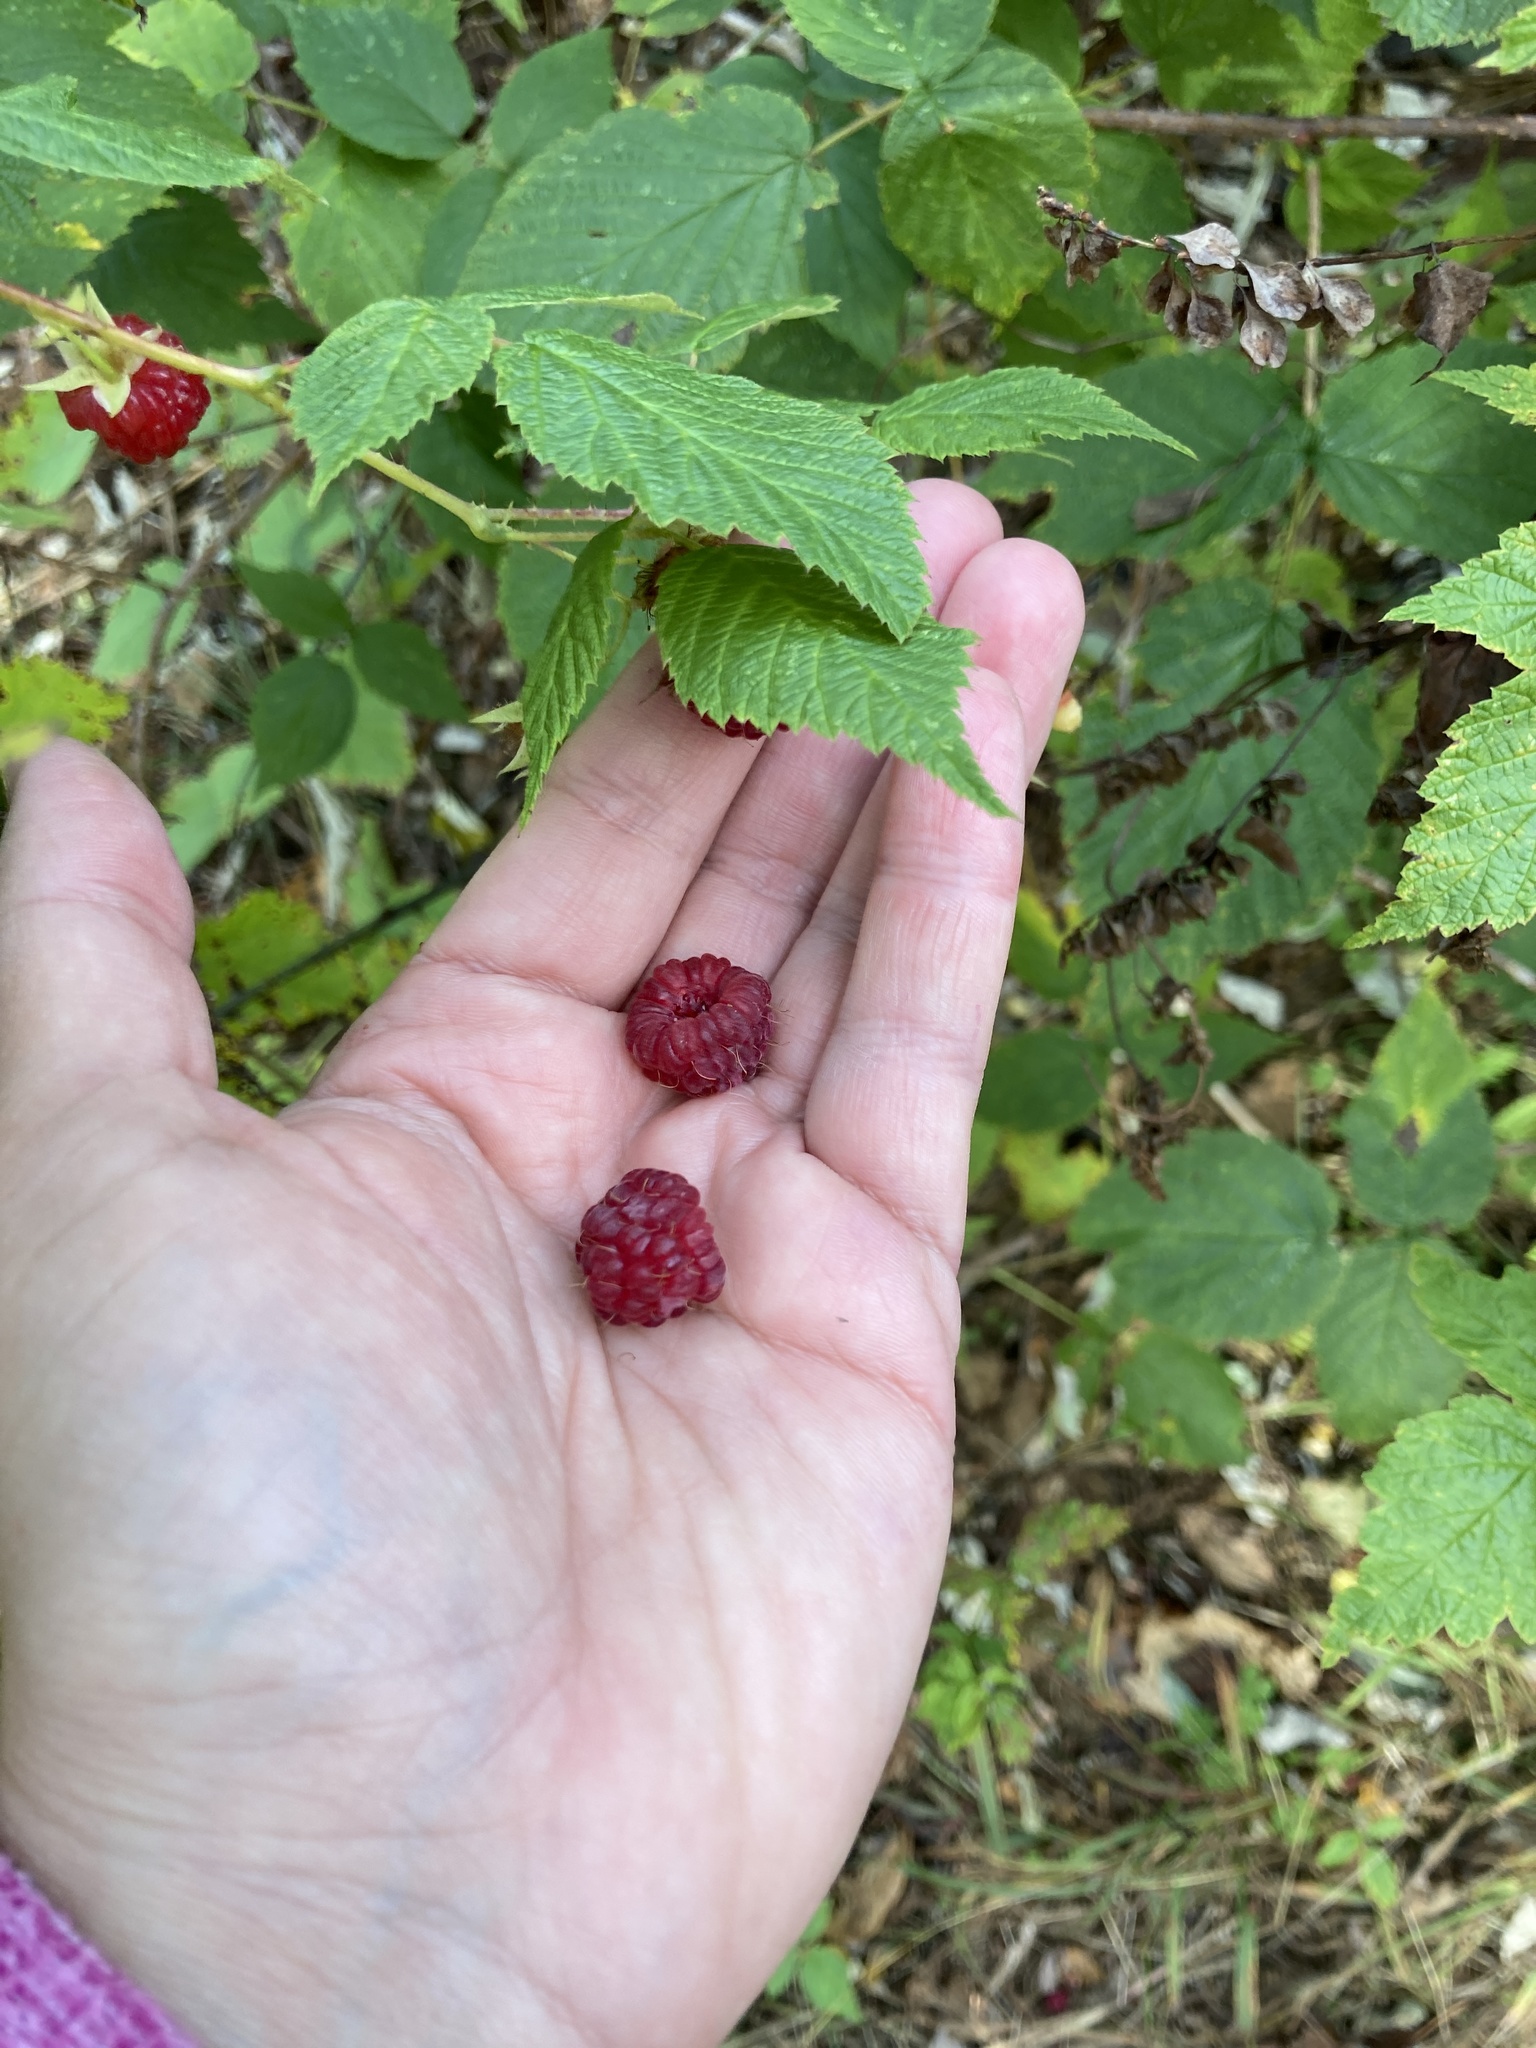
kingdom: Plantae
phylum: Tracheophyta
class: Magnoliopsida
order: Rosales
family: Rosaceae
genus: Rubus
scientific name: Rubus idaeus
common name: Raspberry
